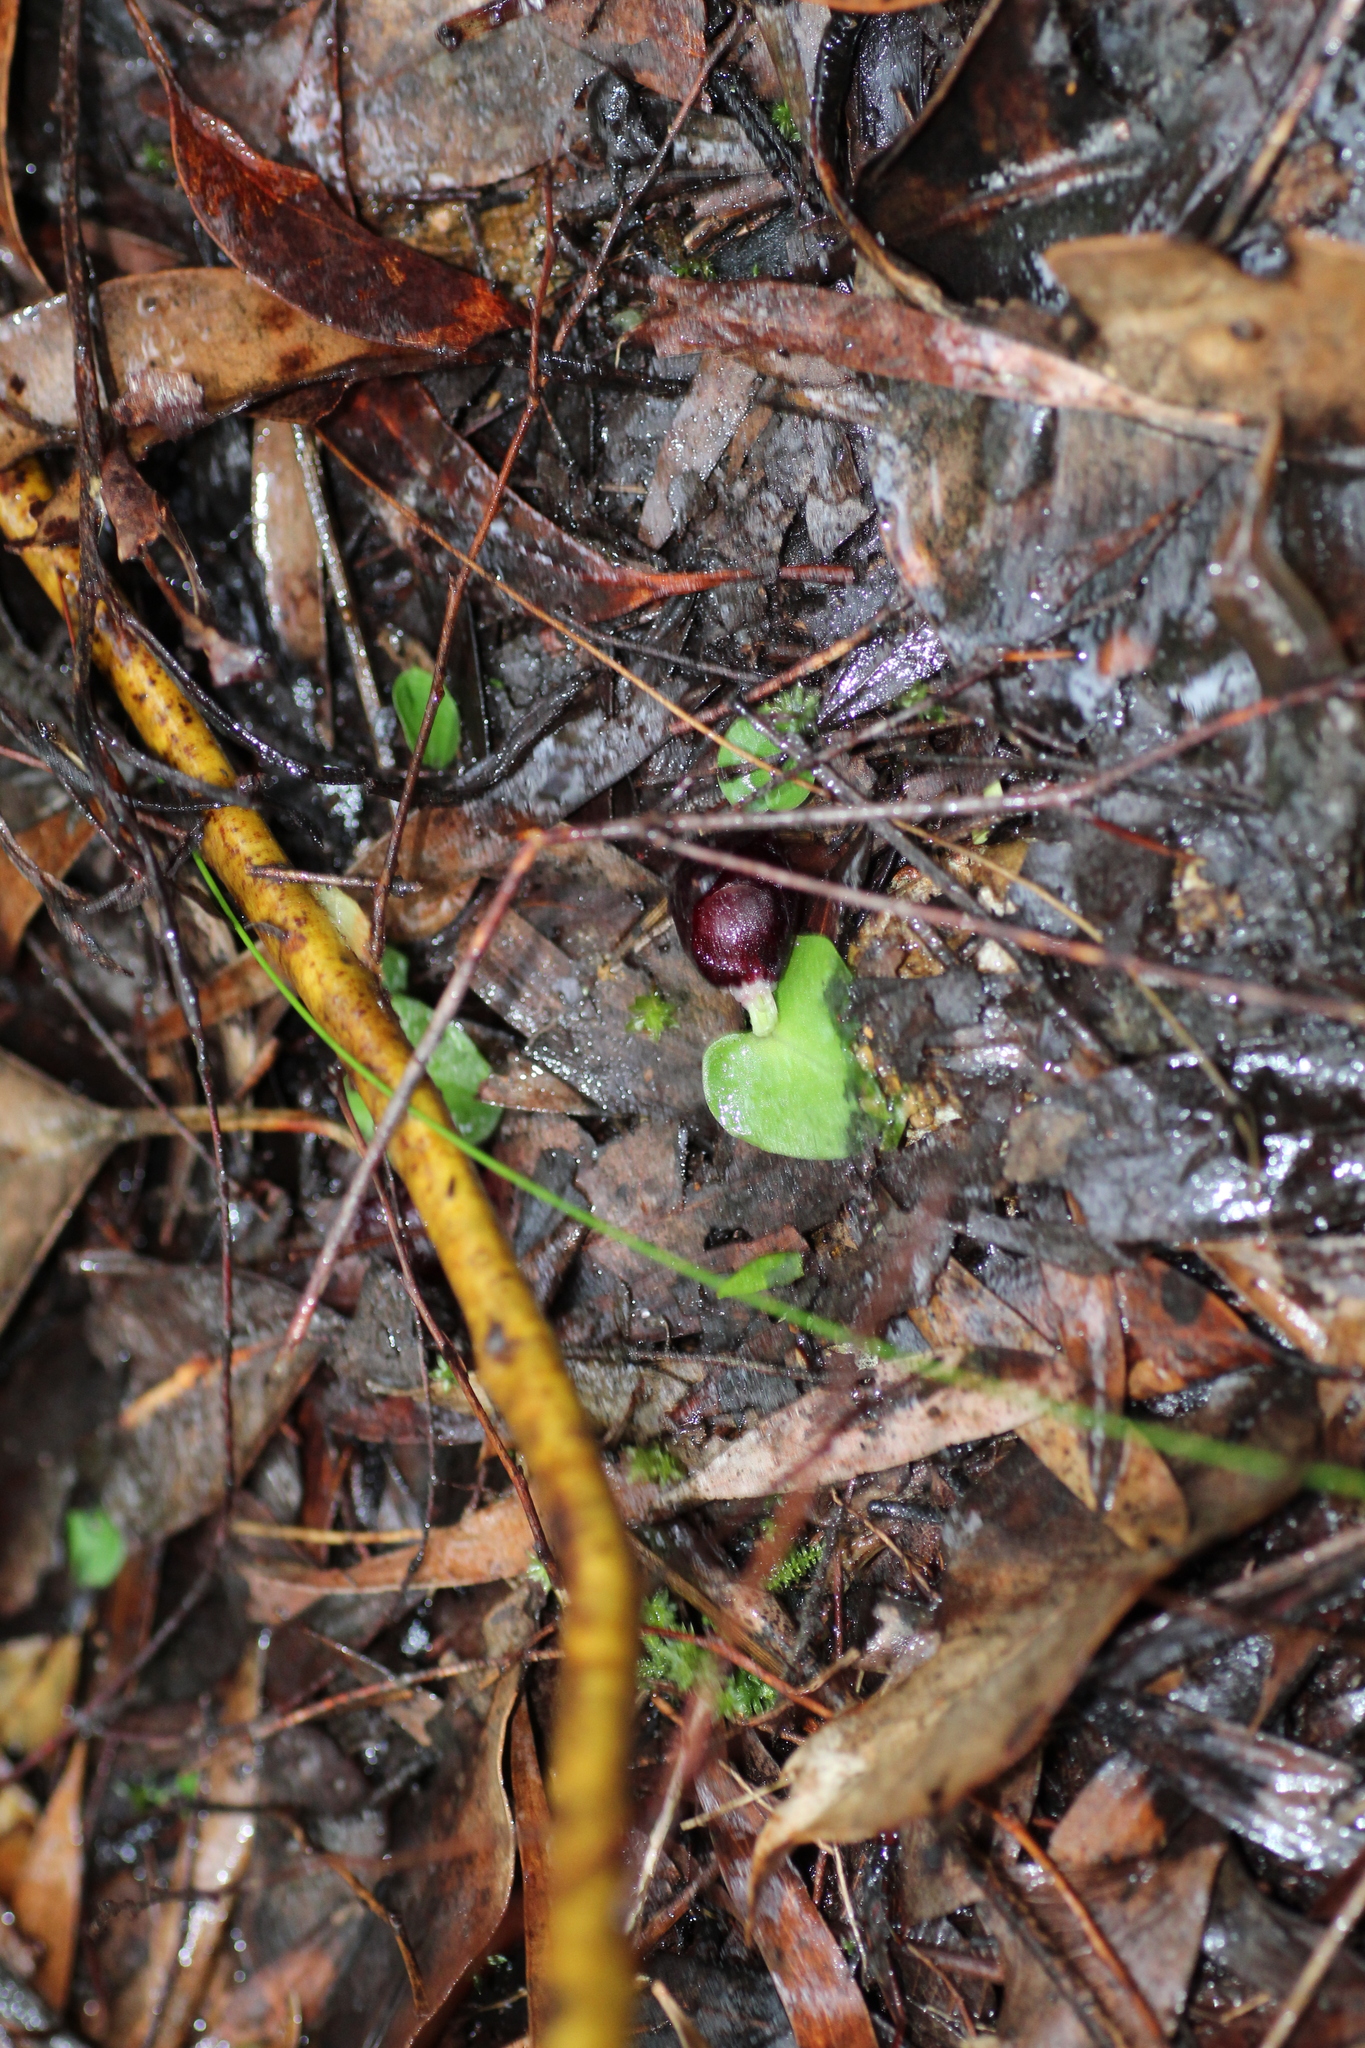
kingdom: Plantae
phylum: Tracheophyta
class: Liliopsida
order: Asparagales
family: Orchidaceae
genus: Corybas
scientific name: Corybas recurvus
